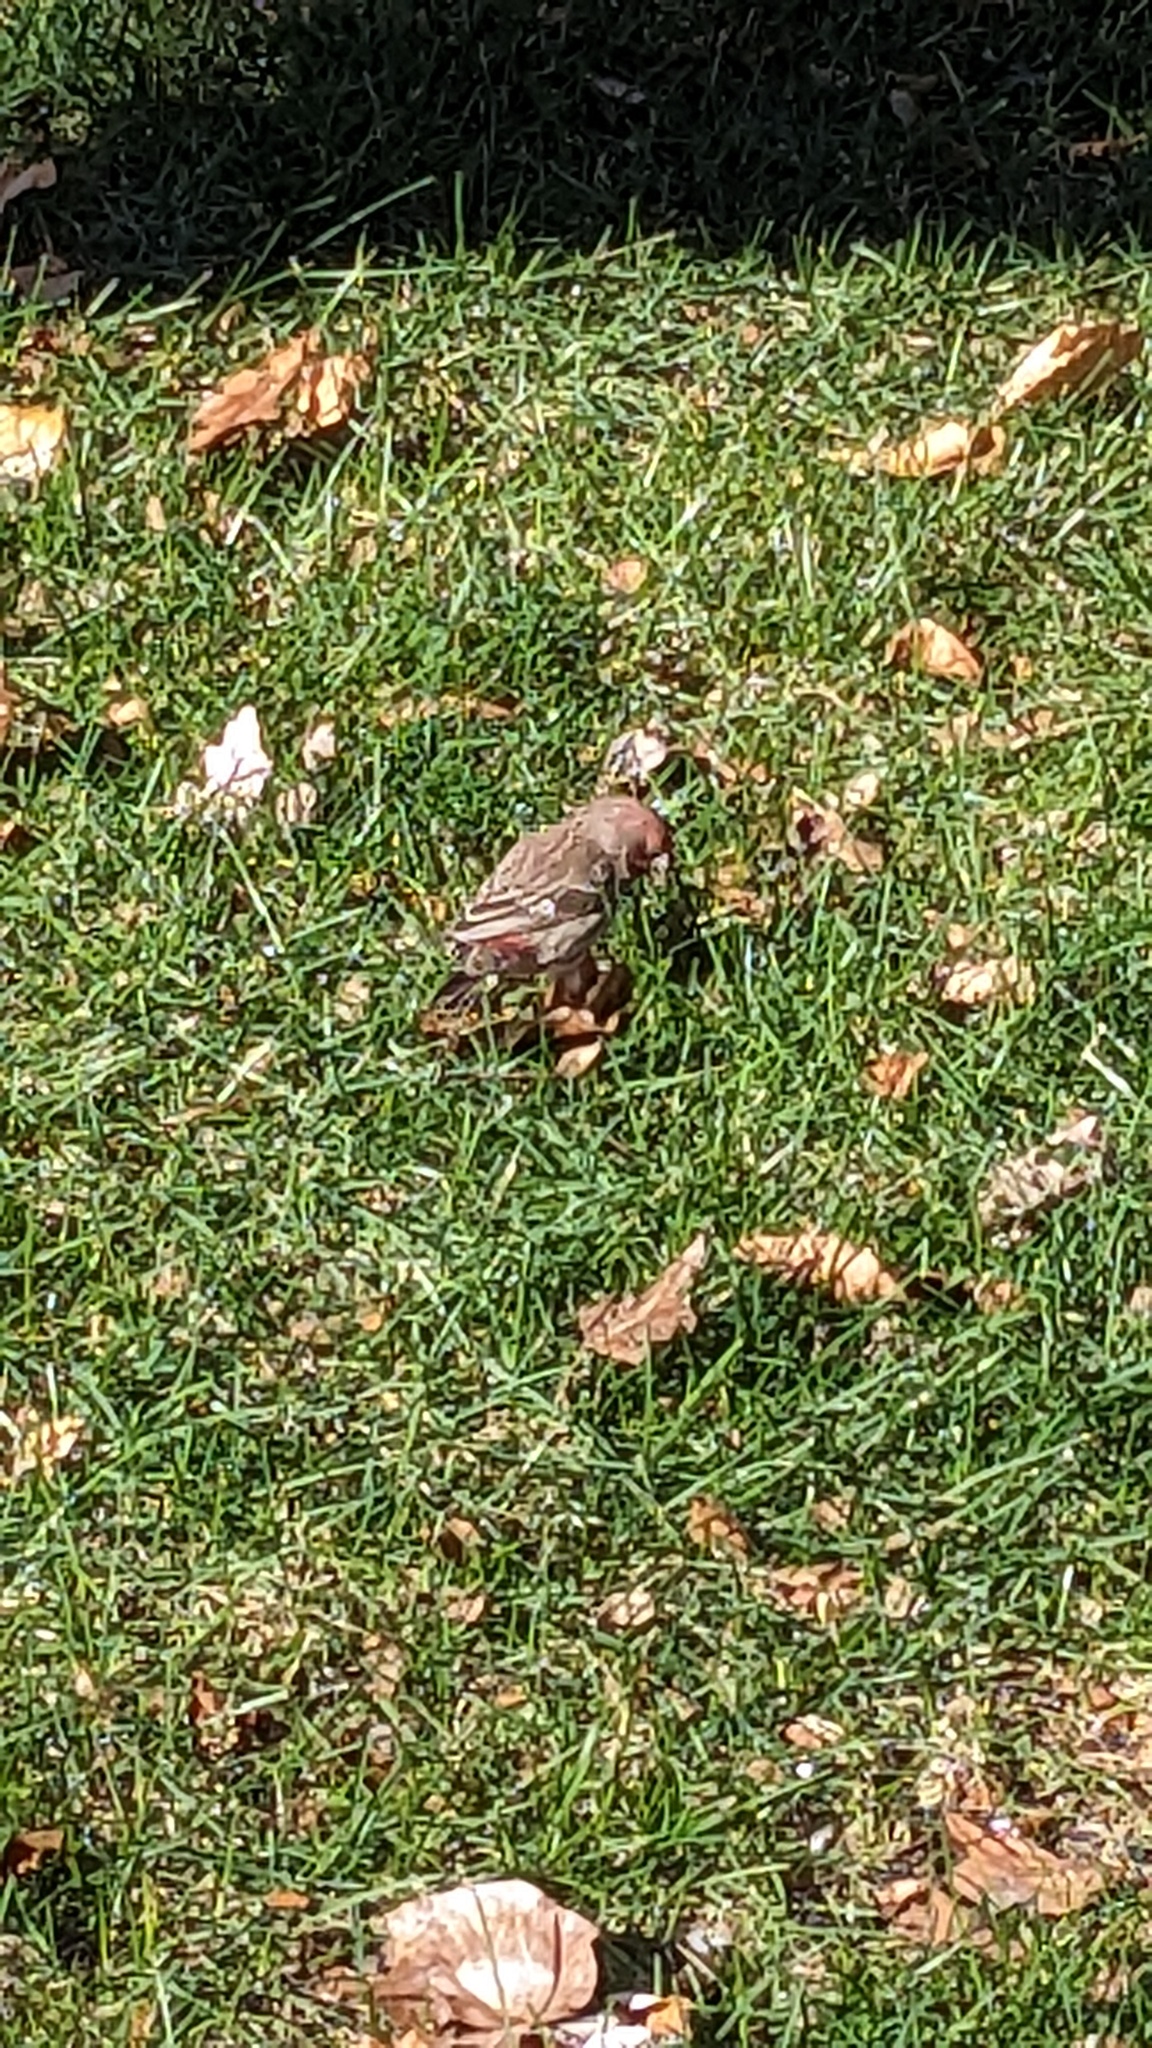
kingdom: Animalia
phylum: Chordata
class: Aves
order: Passeriformes
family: Fringillidae
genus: Haemorhous
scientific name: Haemorhous mexicanus
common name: House finch
